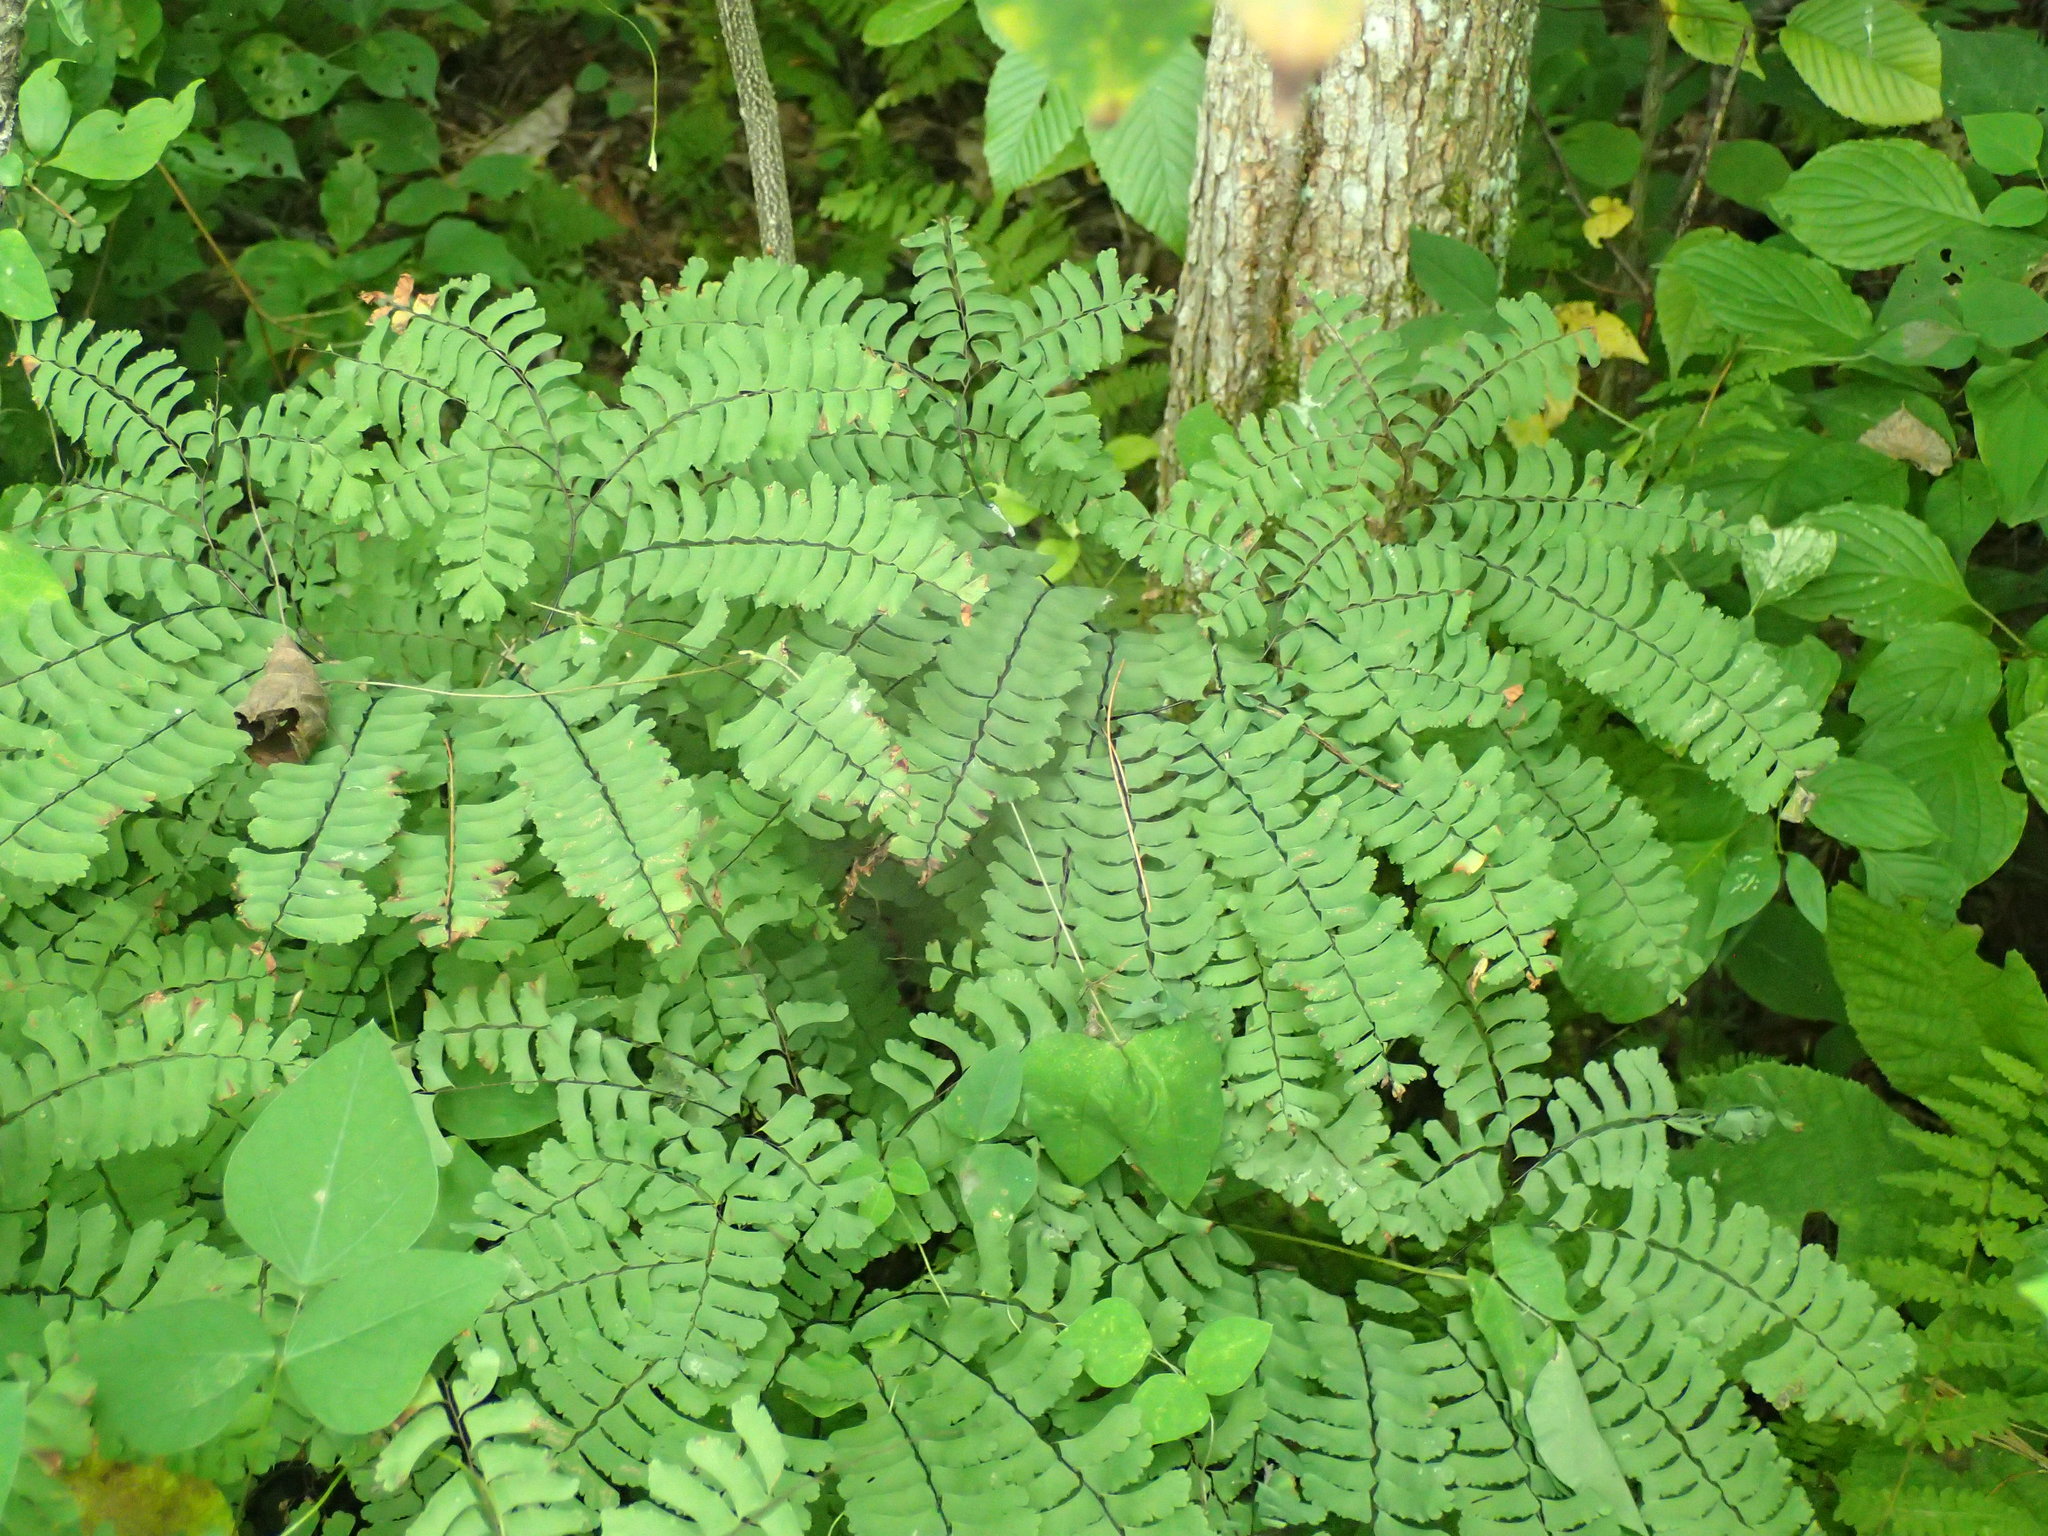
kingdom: Plantae
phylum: Tracheophyta
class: Polypodiopsida
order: Polypodiales
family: Pteridaceae
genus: Adiantum
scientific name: Adiantum pedatum
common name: Five-finger fern
